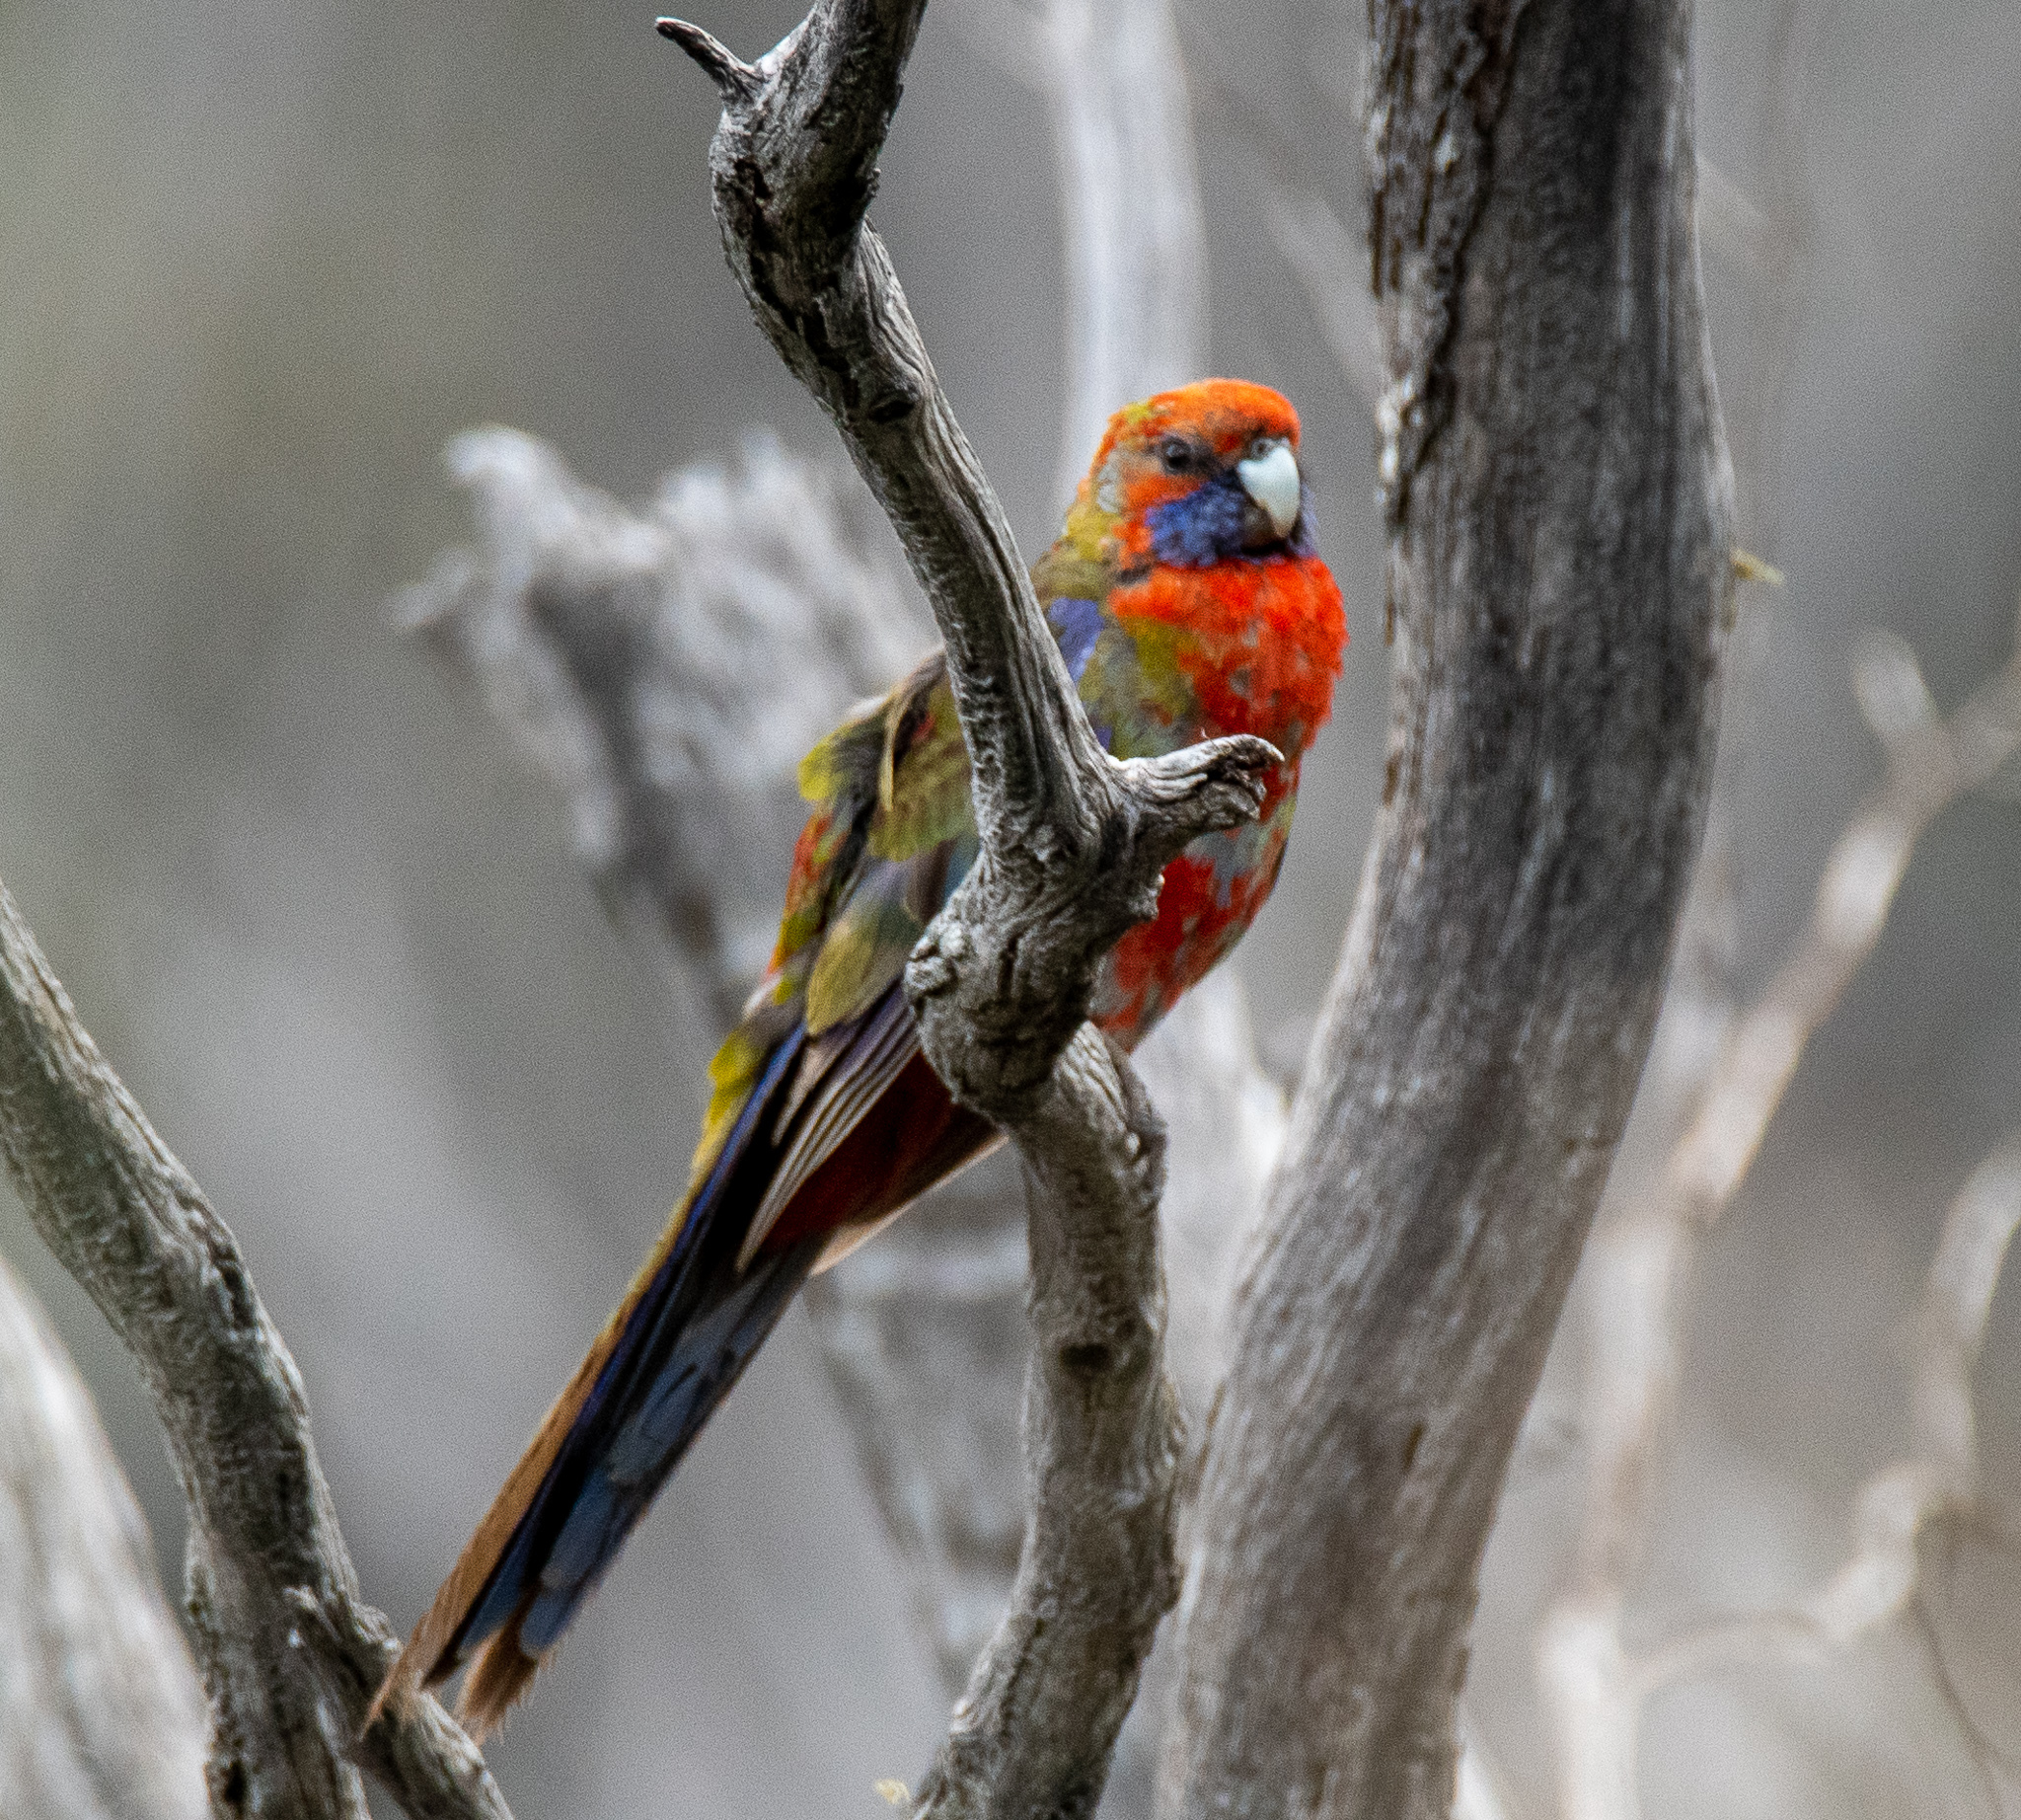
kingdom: Animalia
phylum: Chordata
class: Aves
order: Psittaciformes
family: Psittacidae
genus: Platycercus
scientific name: Platycercus elegans
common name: Crimson rosella
